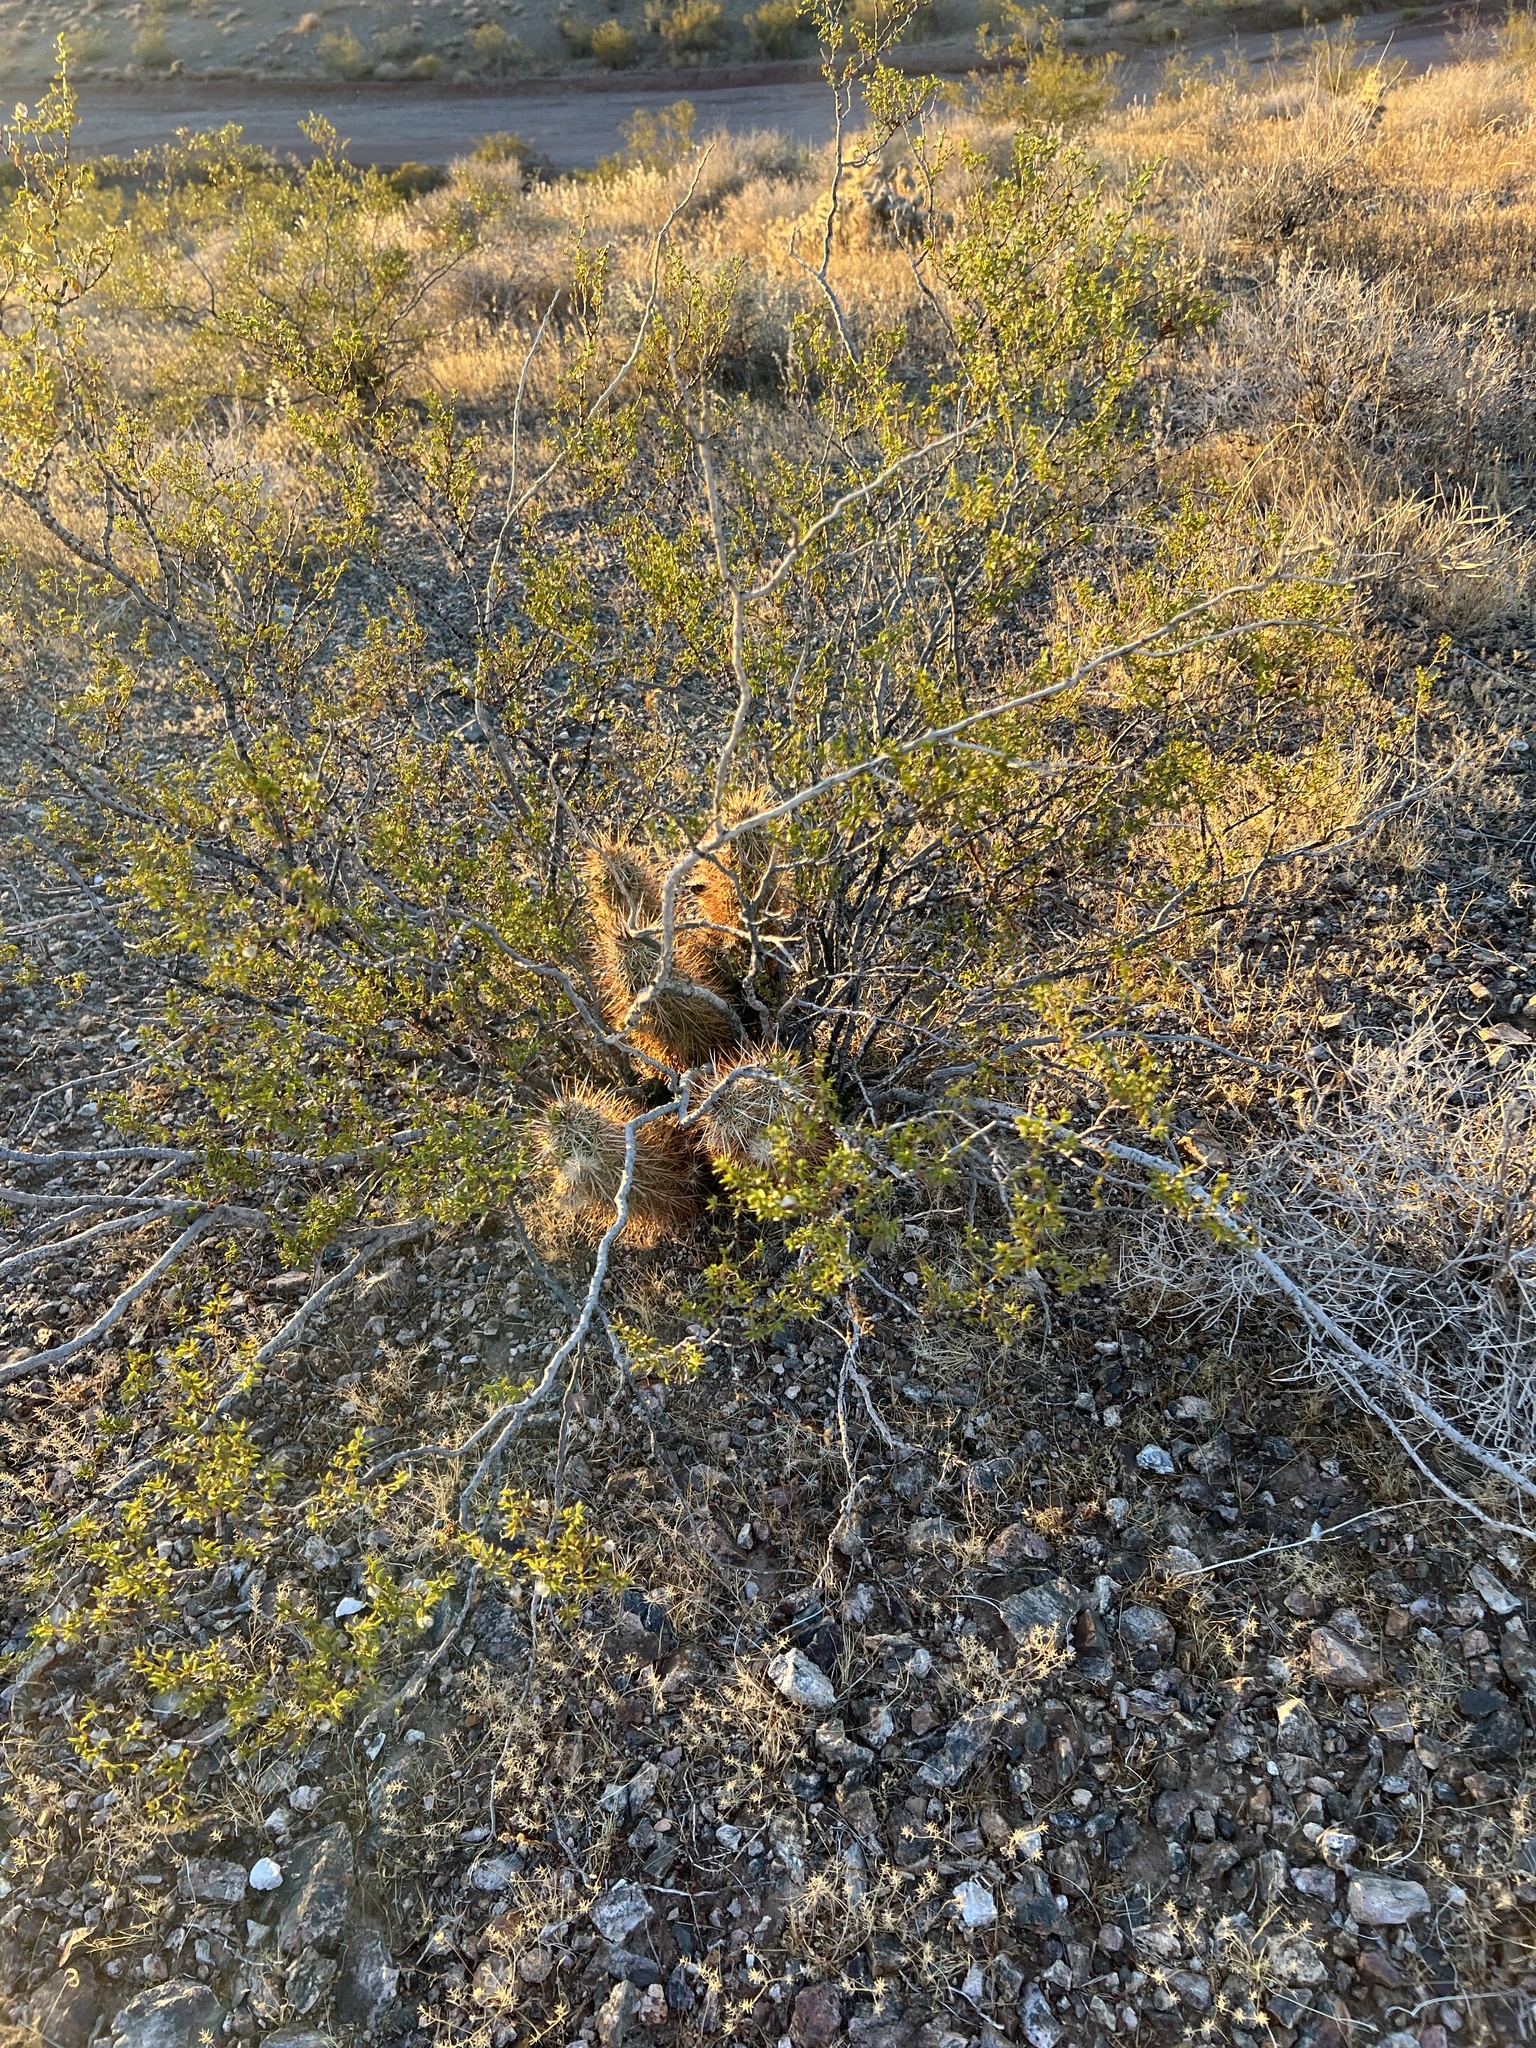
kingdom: Plantae
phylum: Tracheophyta
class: Magnoliopsida
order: Zygophyllales
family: Zygophyllaceae
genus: Larrea
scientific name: Larrea tridentata
